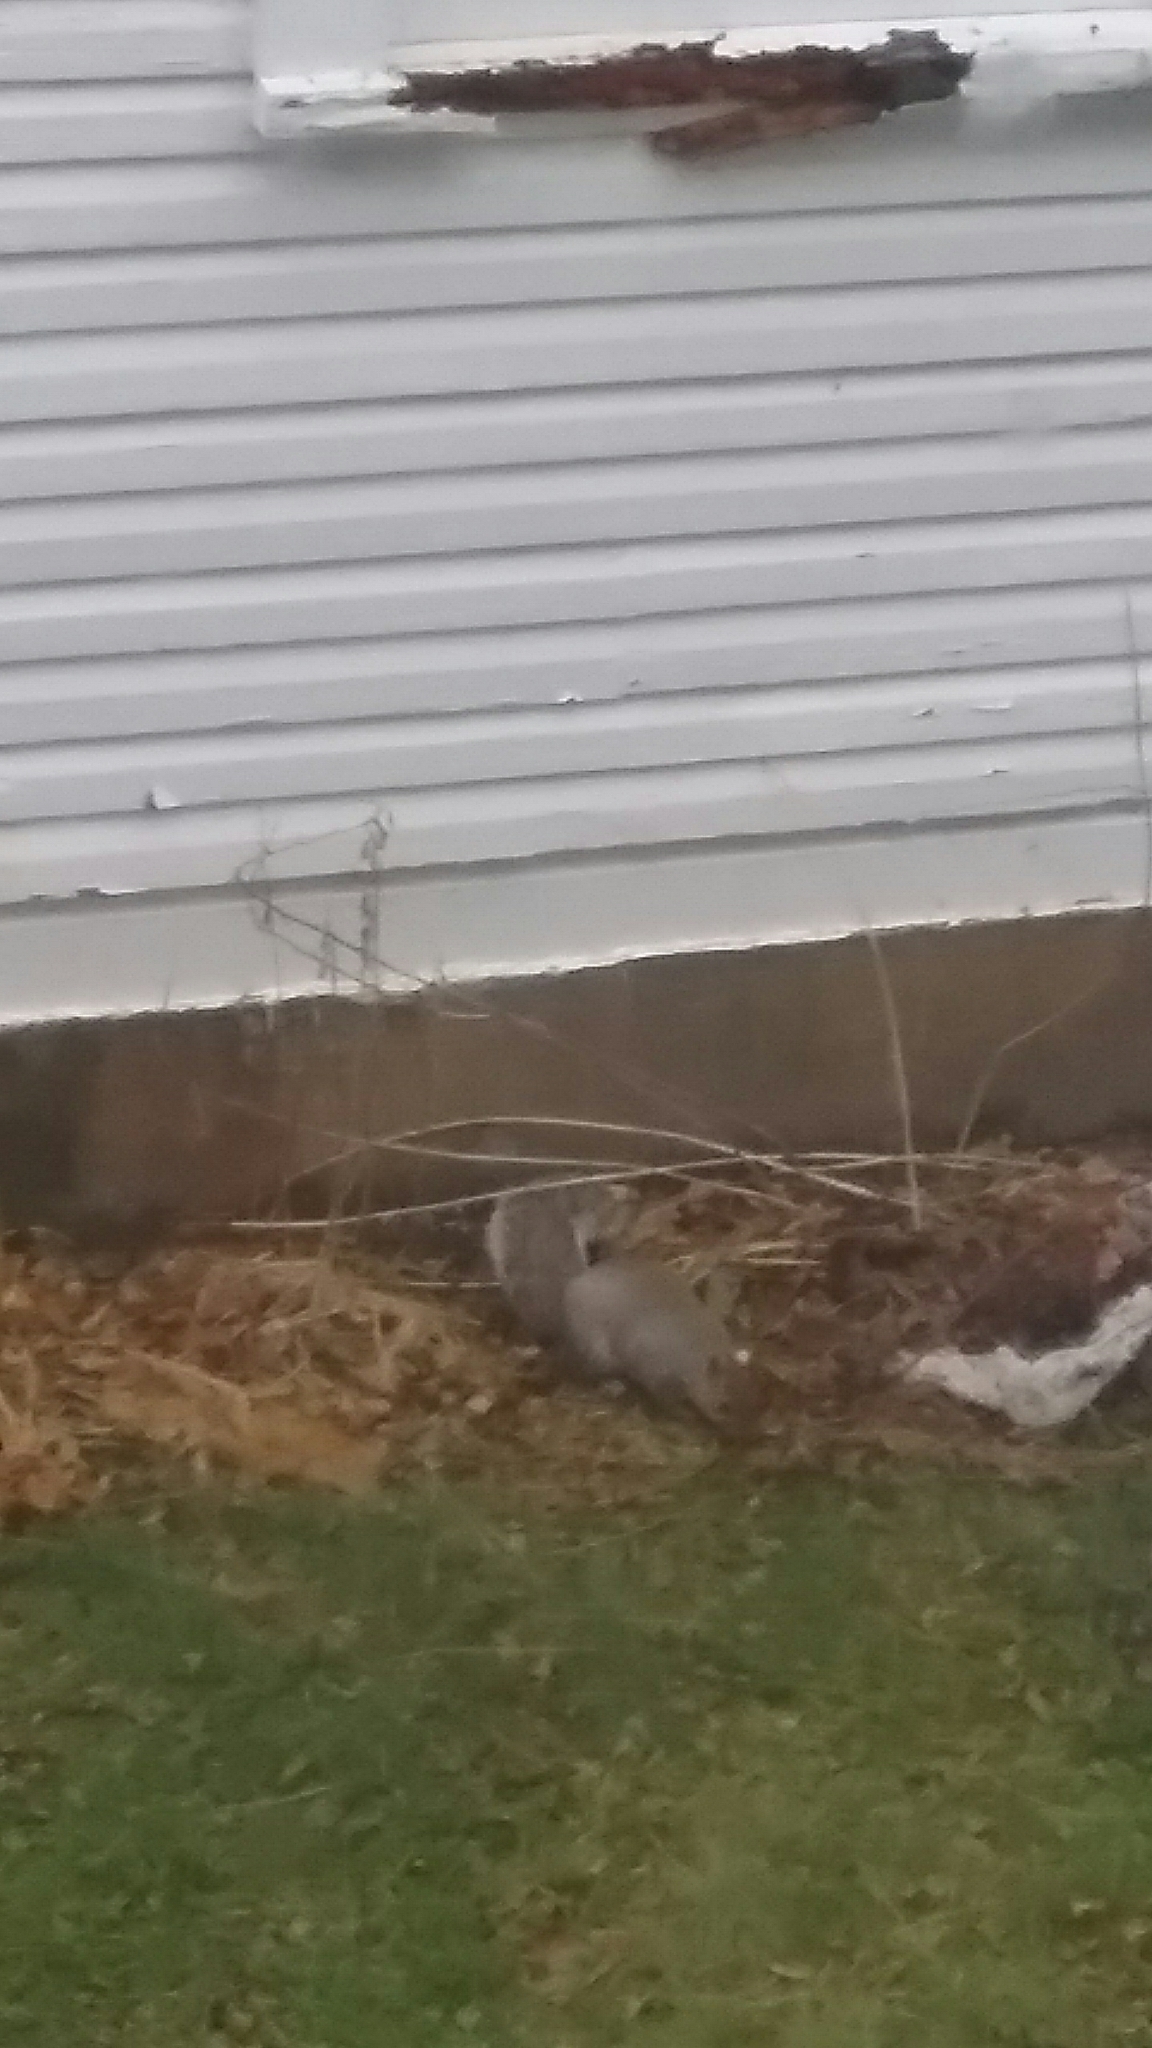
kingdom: Animalia
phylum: Chordata
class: Mammalia
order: Rodentia
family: Sciuridae
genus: Sciurus
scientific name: Sciurus carolinensis
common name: Eastern gray squirrel
